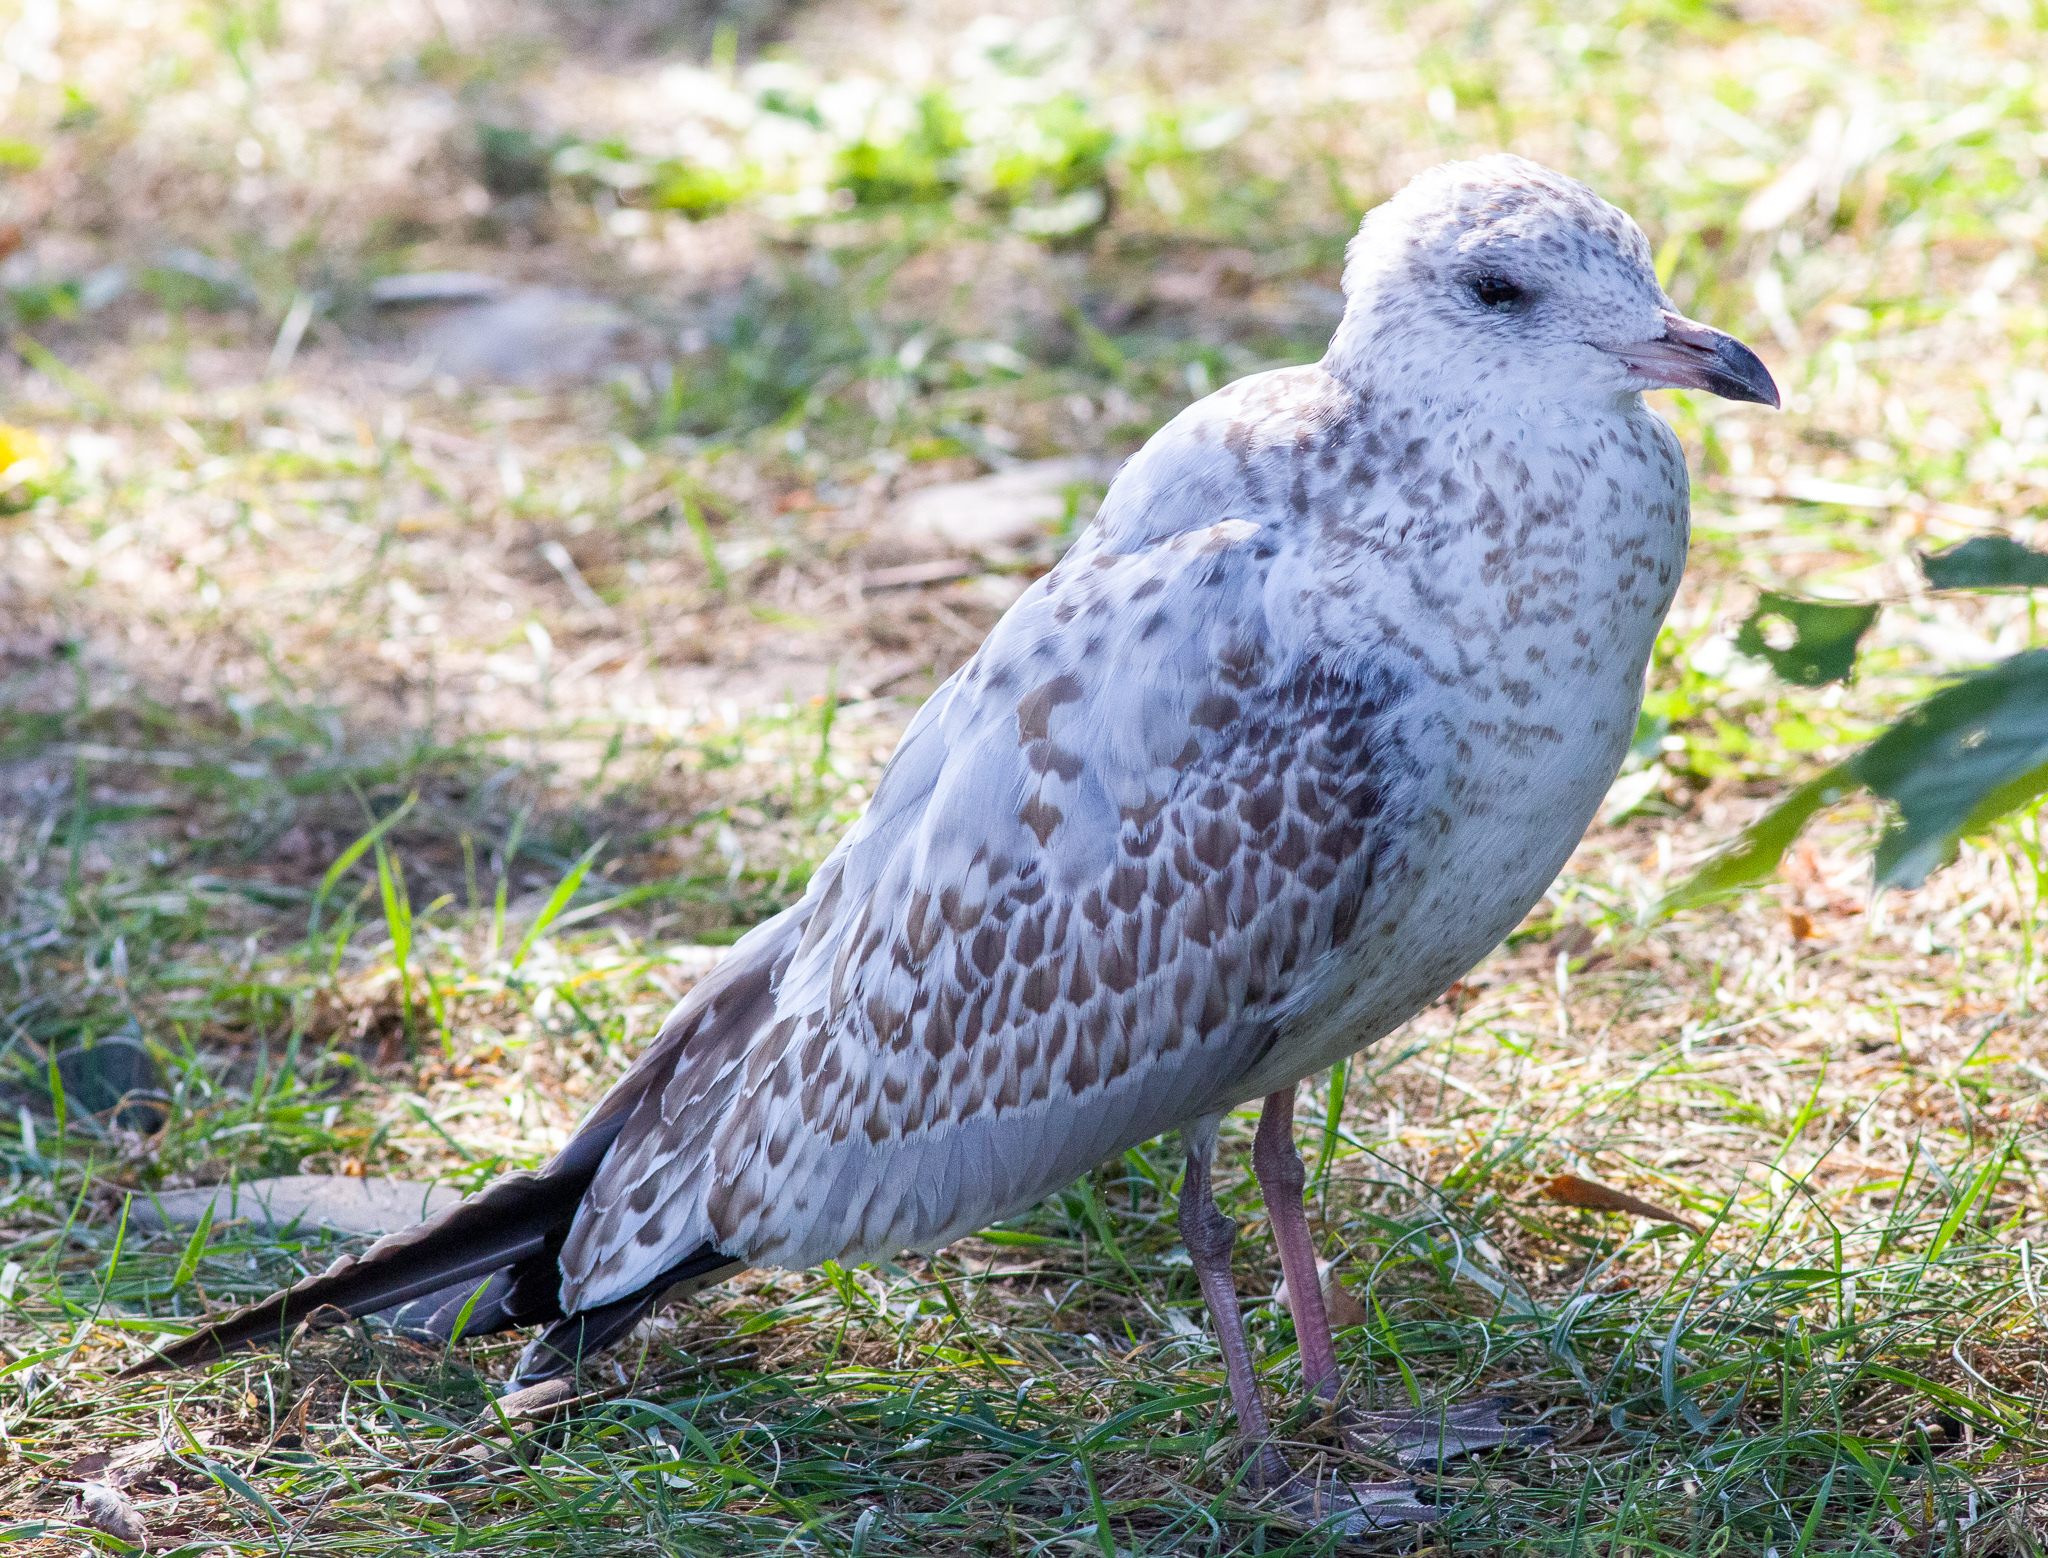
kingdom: Animalia
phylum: Chordata
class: Aves
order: Charadriiformes
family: Laridae
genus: Larus
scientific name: Larus delawarensis
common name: Ring-billed gull
